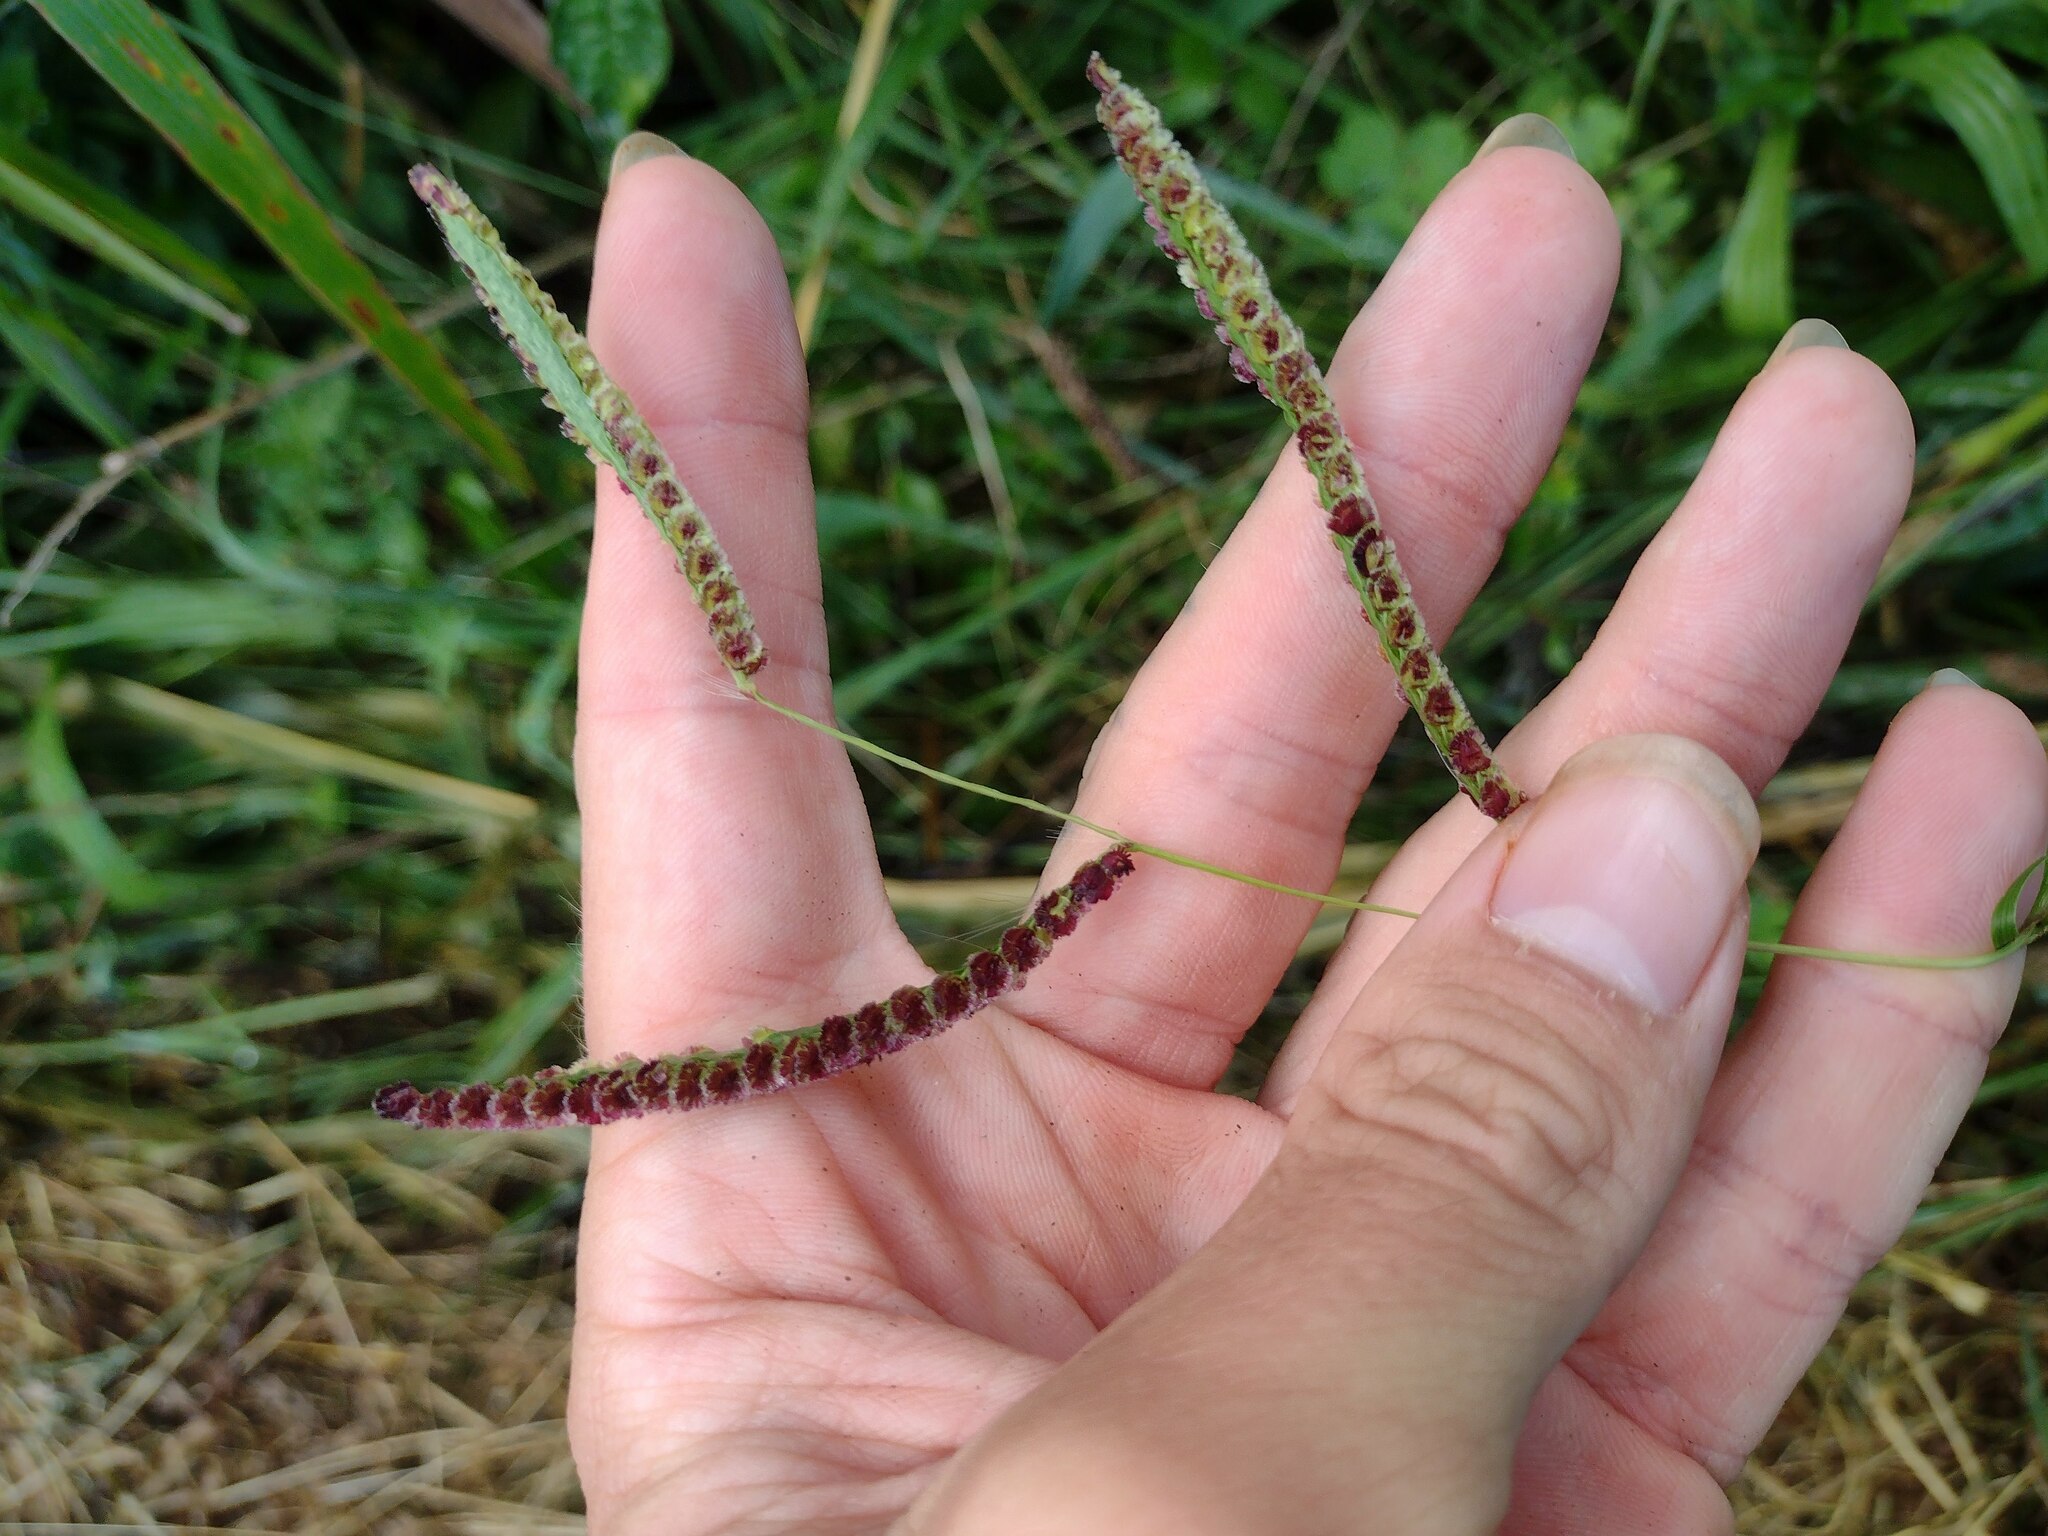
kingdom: Plantae
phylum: Tracheophyta
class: Liliopsida
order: Poales
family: Poaceae
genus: Paspalum
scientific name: Paspalum fimbriatum
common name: Panama crowngrass
